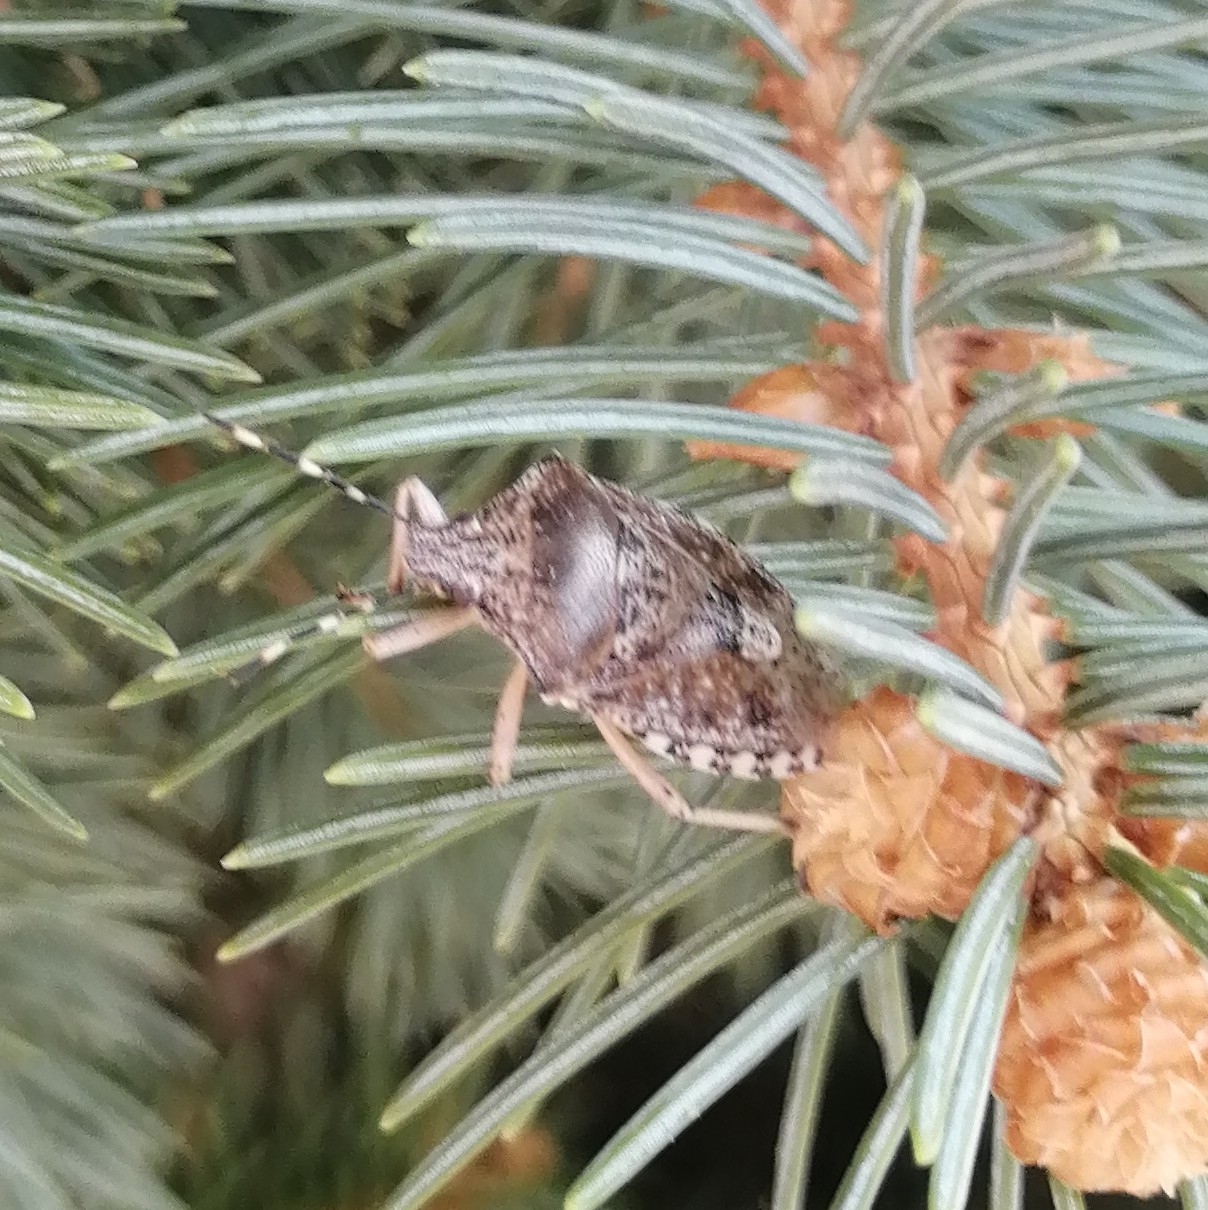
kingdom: Animalia
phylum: Arthropoda
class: Insecta
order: Hemiptera
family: Pentatomidae
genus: Rhaphigaster
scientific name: Rhaphigaster nebulosa
